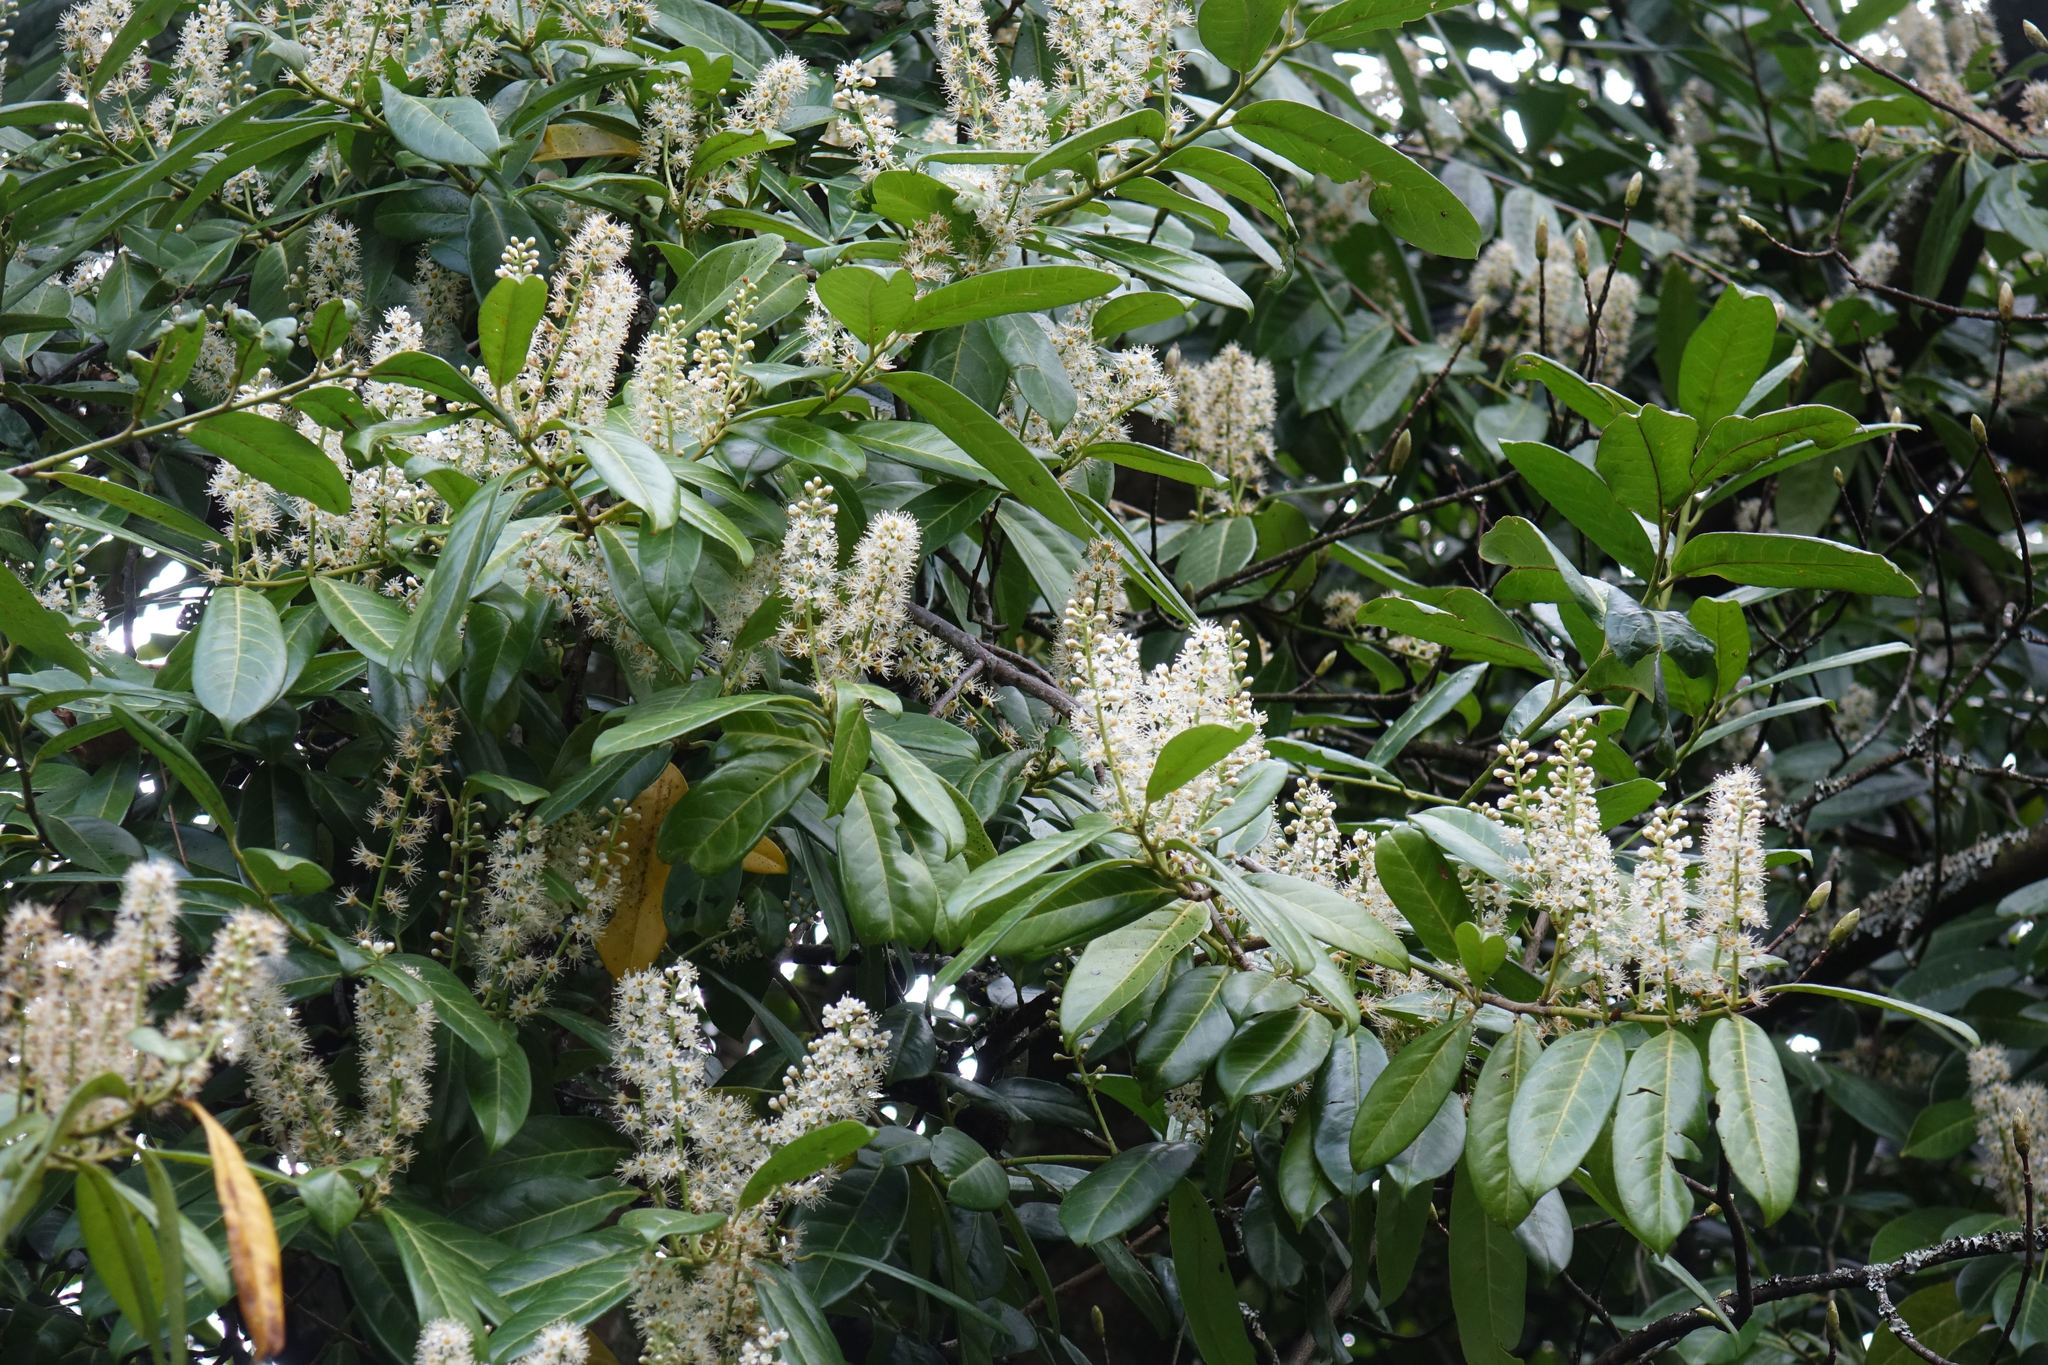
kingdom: Plantae
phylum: Tracheophyta
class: Magnoliopsida
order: Rosales
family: Rosaceae
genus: Prunus
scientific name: Prunus laurocerasus
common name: Cherry laurel
